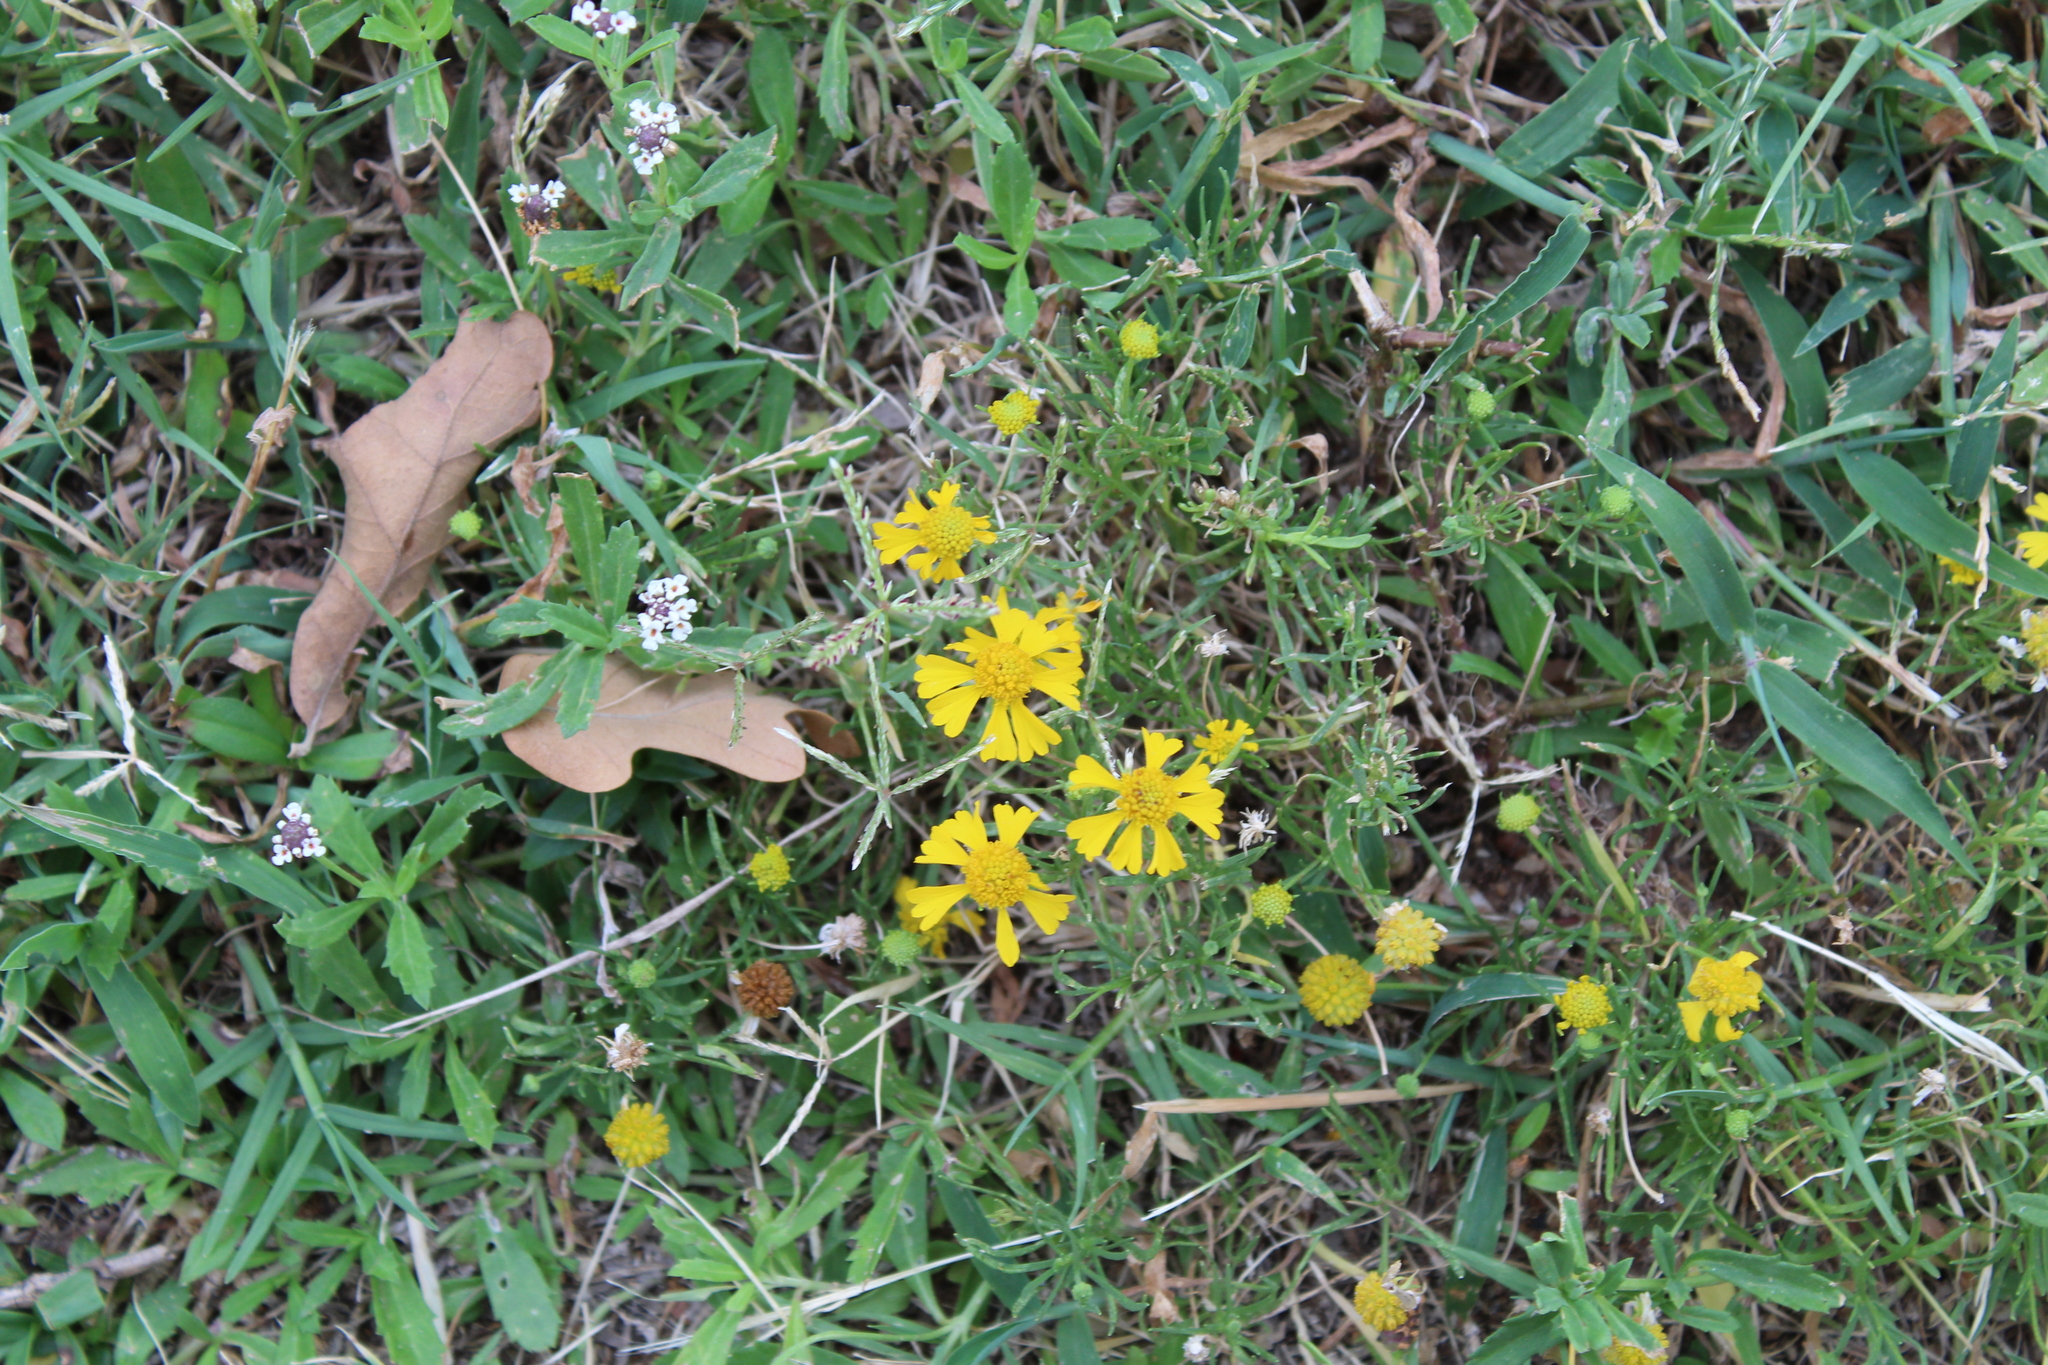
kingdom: Plantae
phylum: Tracheophyta
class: Magnoliopsida
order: Asterales
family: Asteraceae
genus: Helenium
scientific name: Helenium amarum
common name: Bitter sneezeweed
